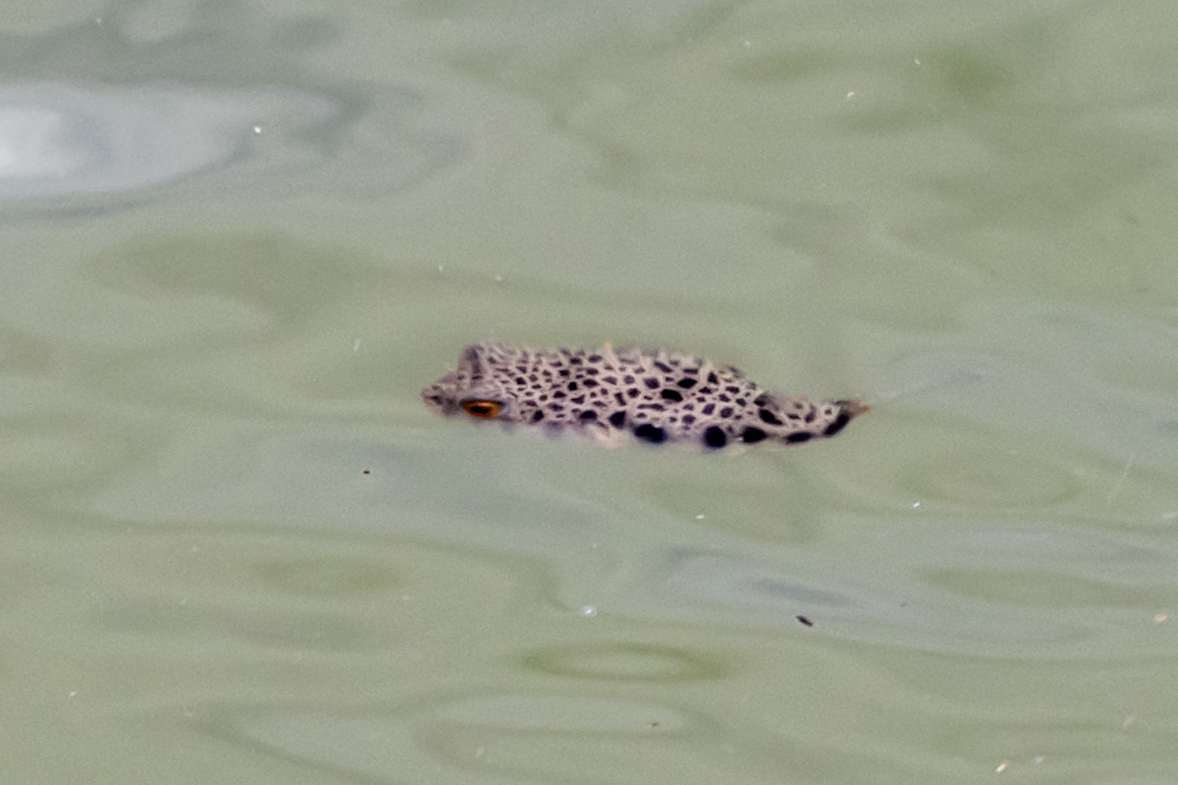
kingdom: Animalia
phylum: Chordata
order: Tetraodontiformes
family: Tetraodontidae
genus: Tetractenos
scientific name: Tetractenos hamiltoni
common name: Common toadfish
